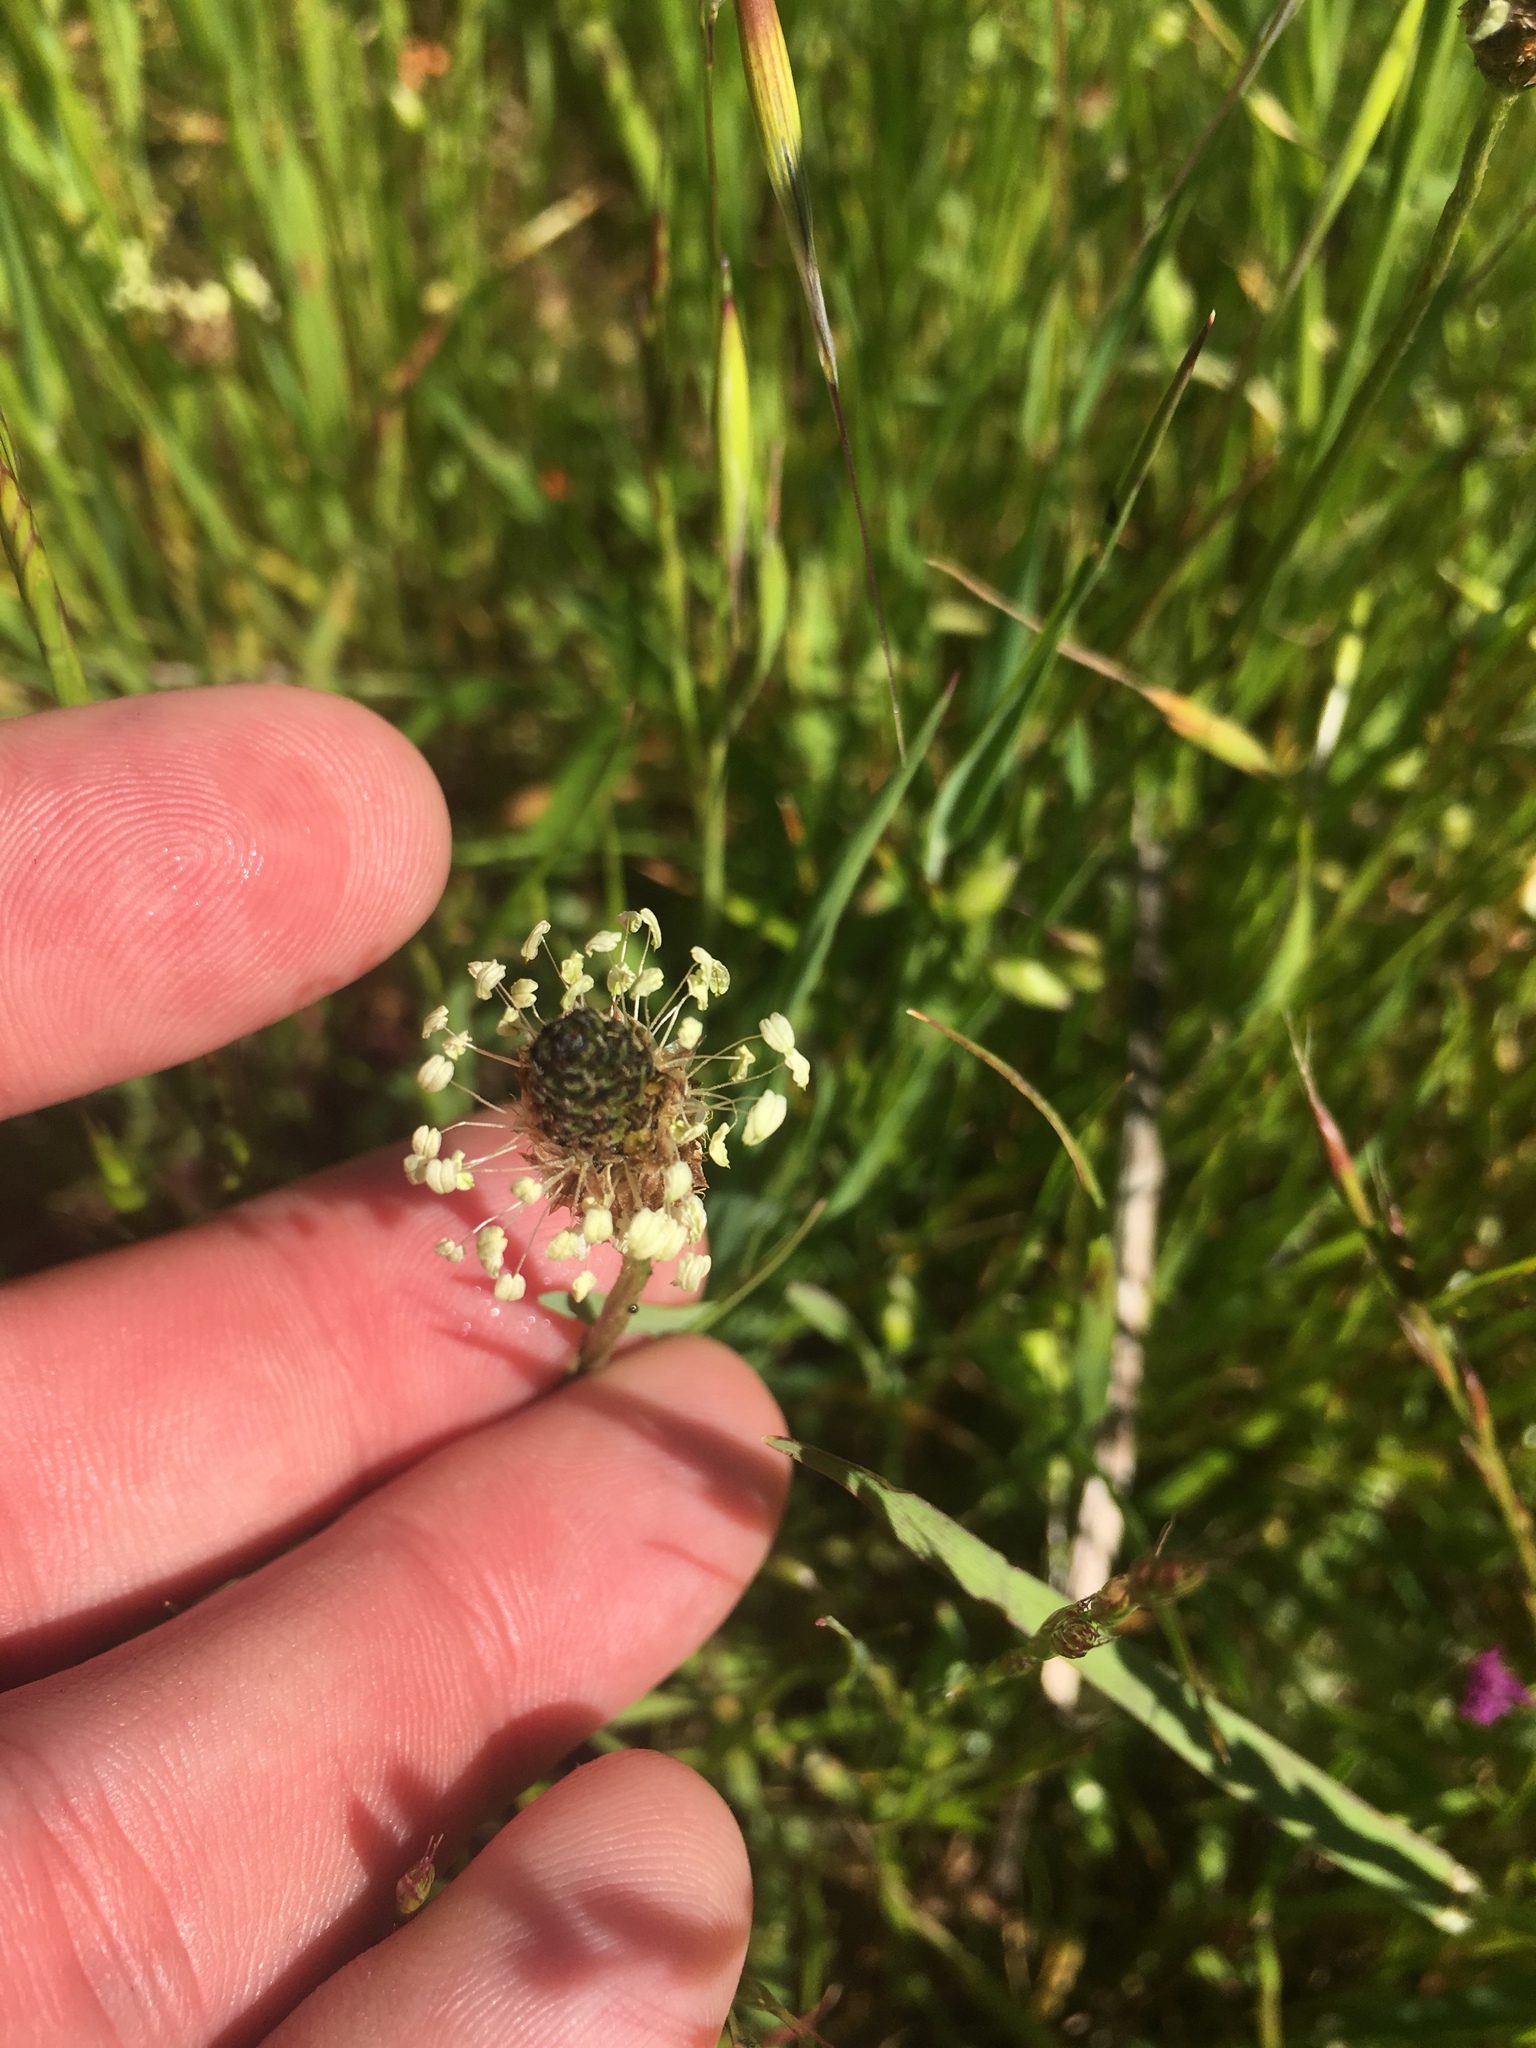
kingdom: Plantae
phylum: Tracheophyta
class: Magnoliopsida
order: Lamiales
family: Plantaginaceae
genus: Plantago
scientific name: Plantago lanceolata
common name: Ribwort plantain
